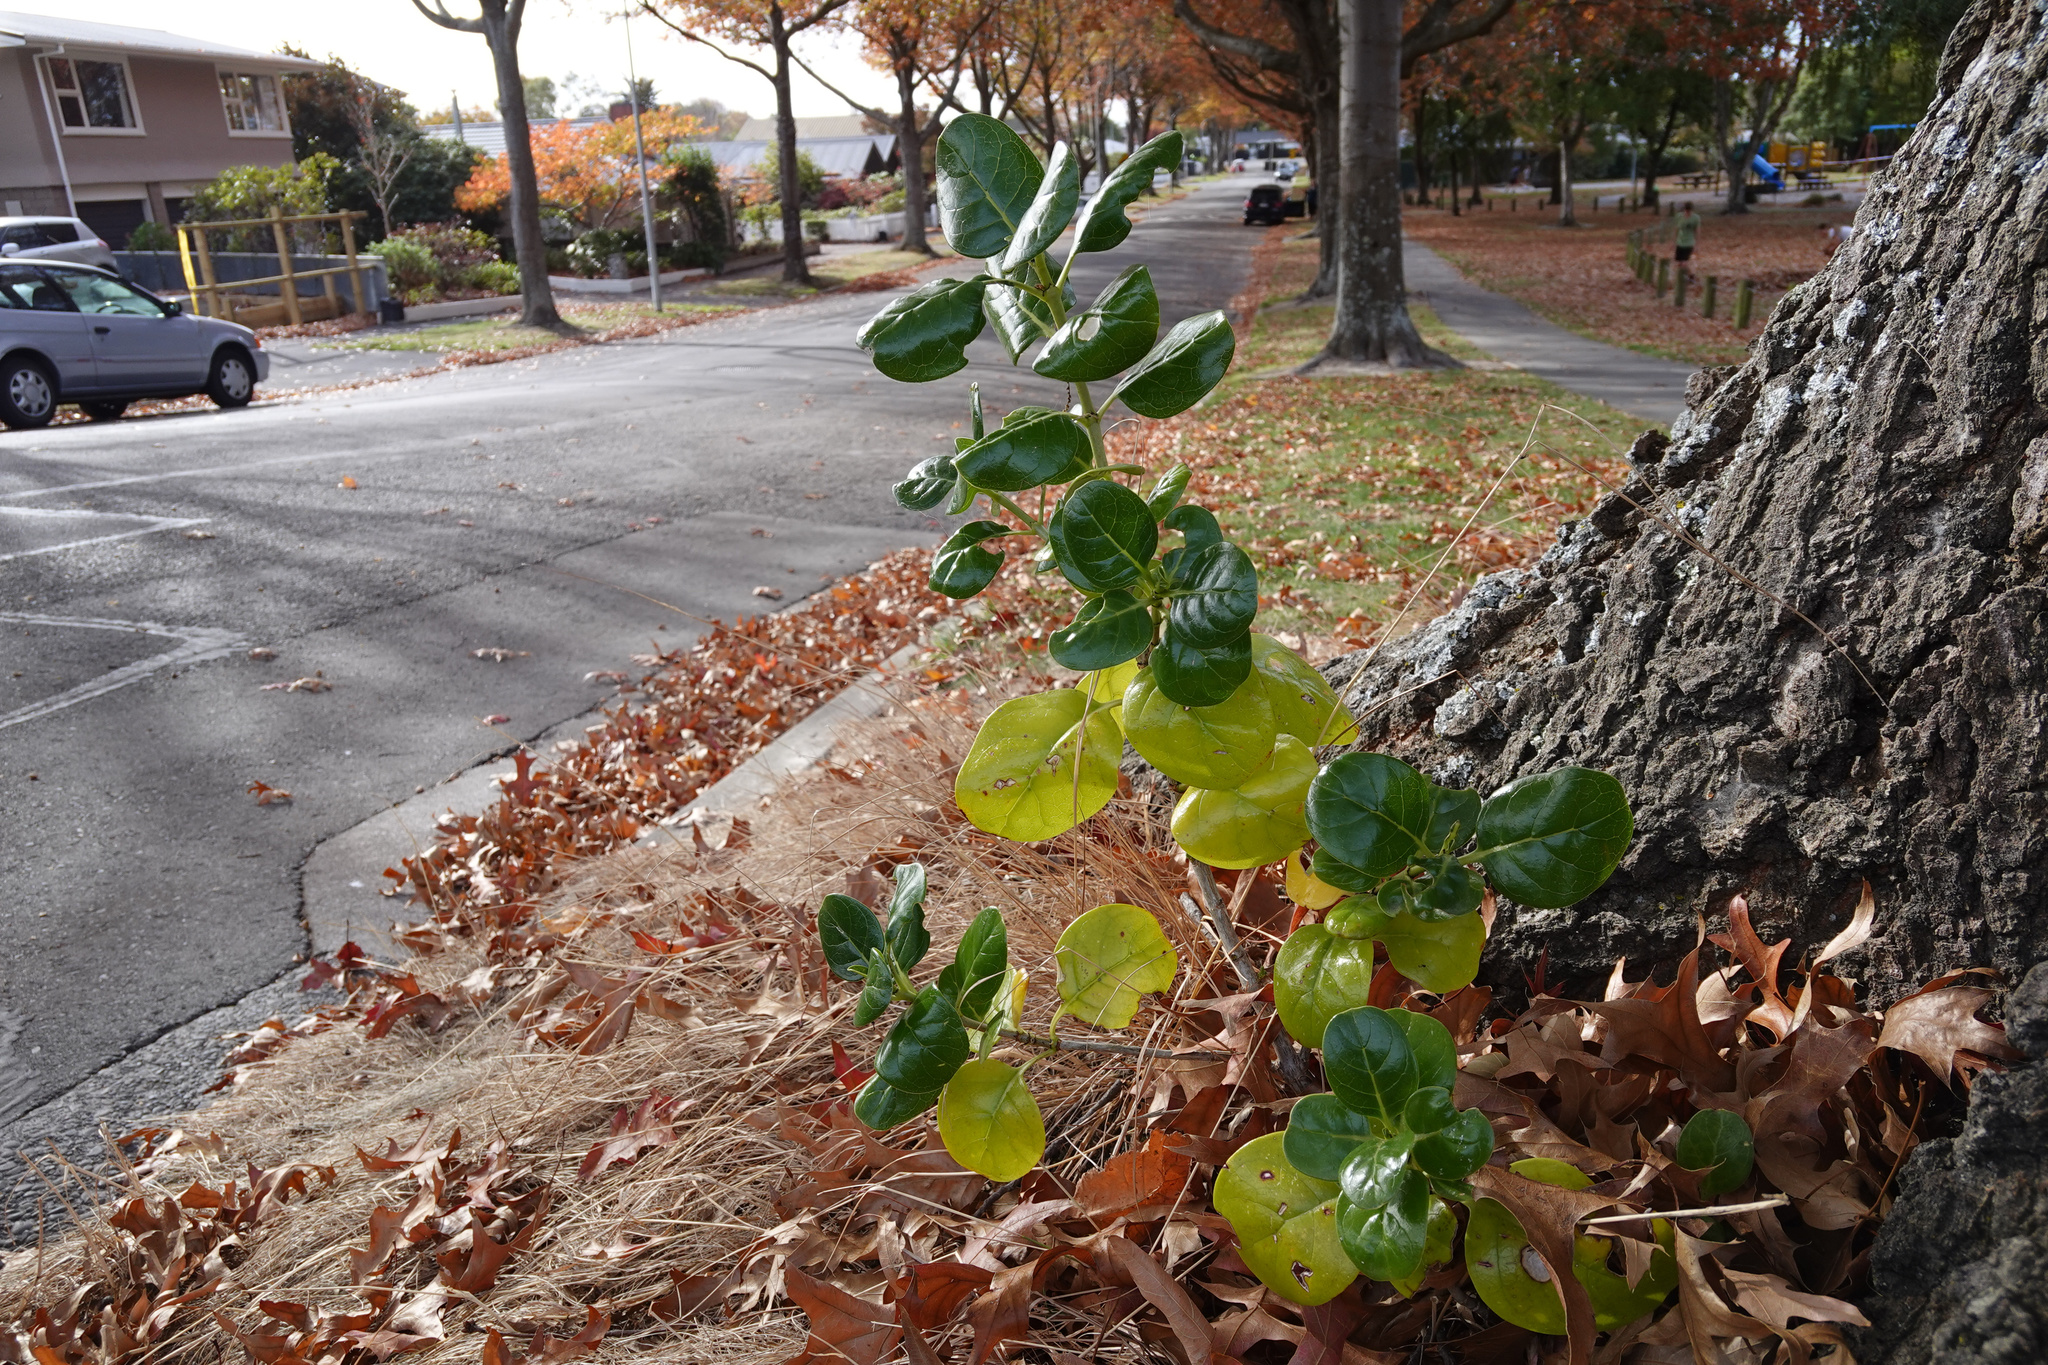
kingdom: Plantae
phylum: Tracheophyta
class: Magnoliopsida
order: Gentianales
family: Rubiaceae
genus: Coprosma
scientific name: Coprosma repens
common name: Tree bedstraw
